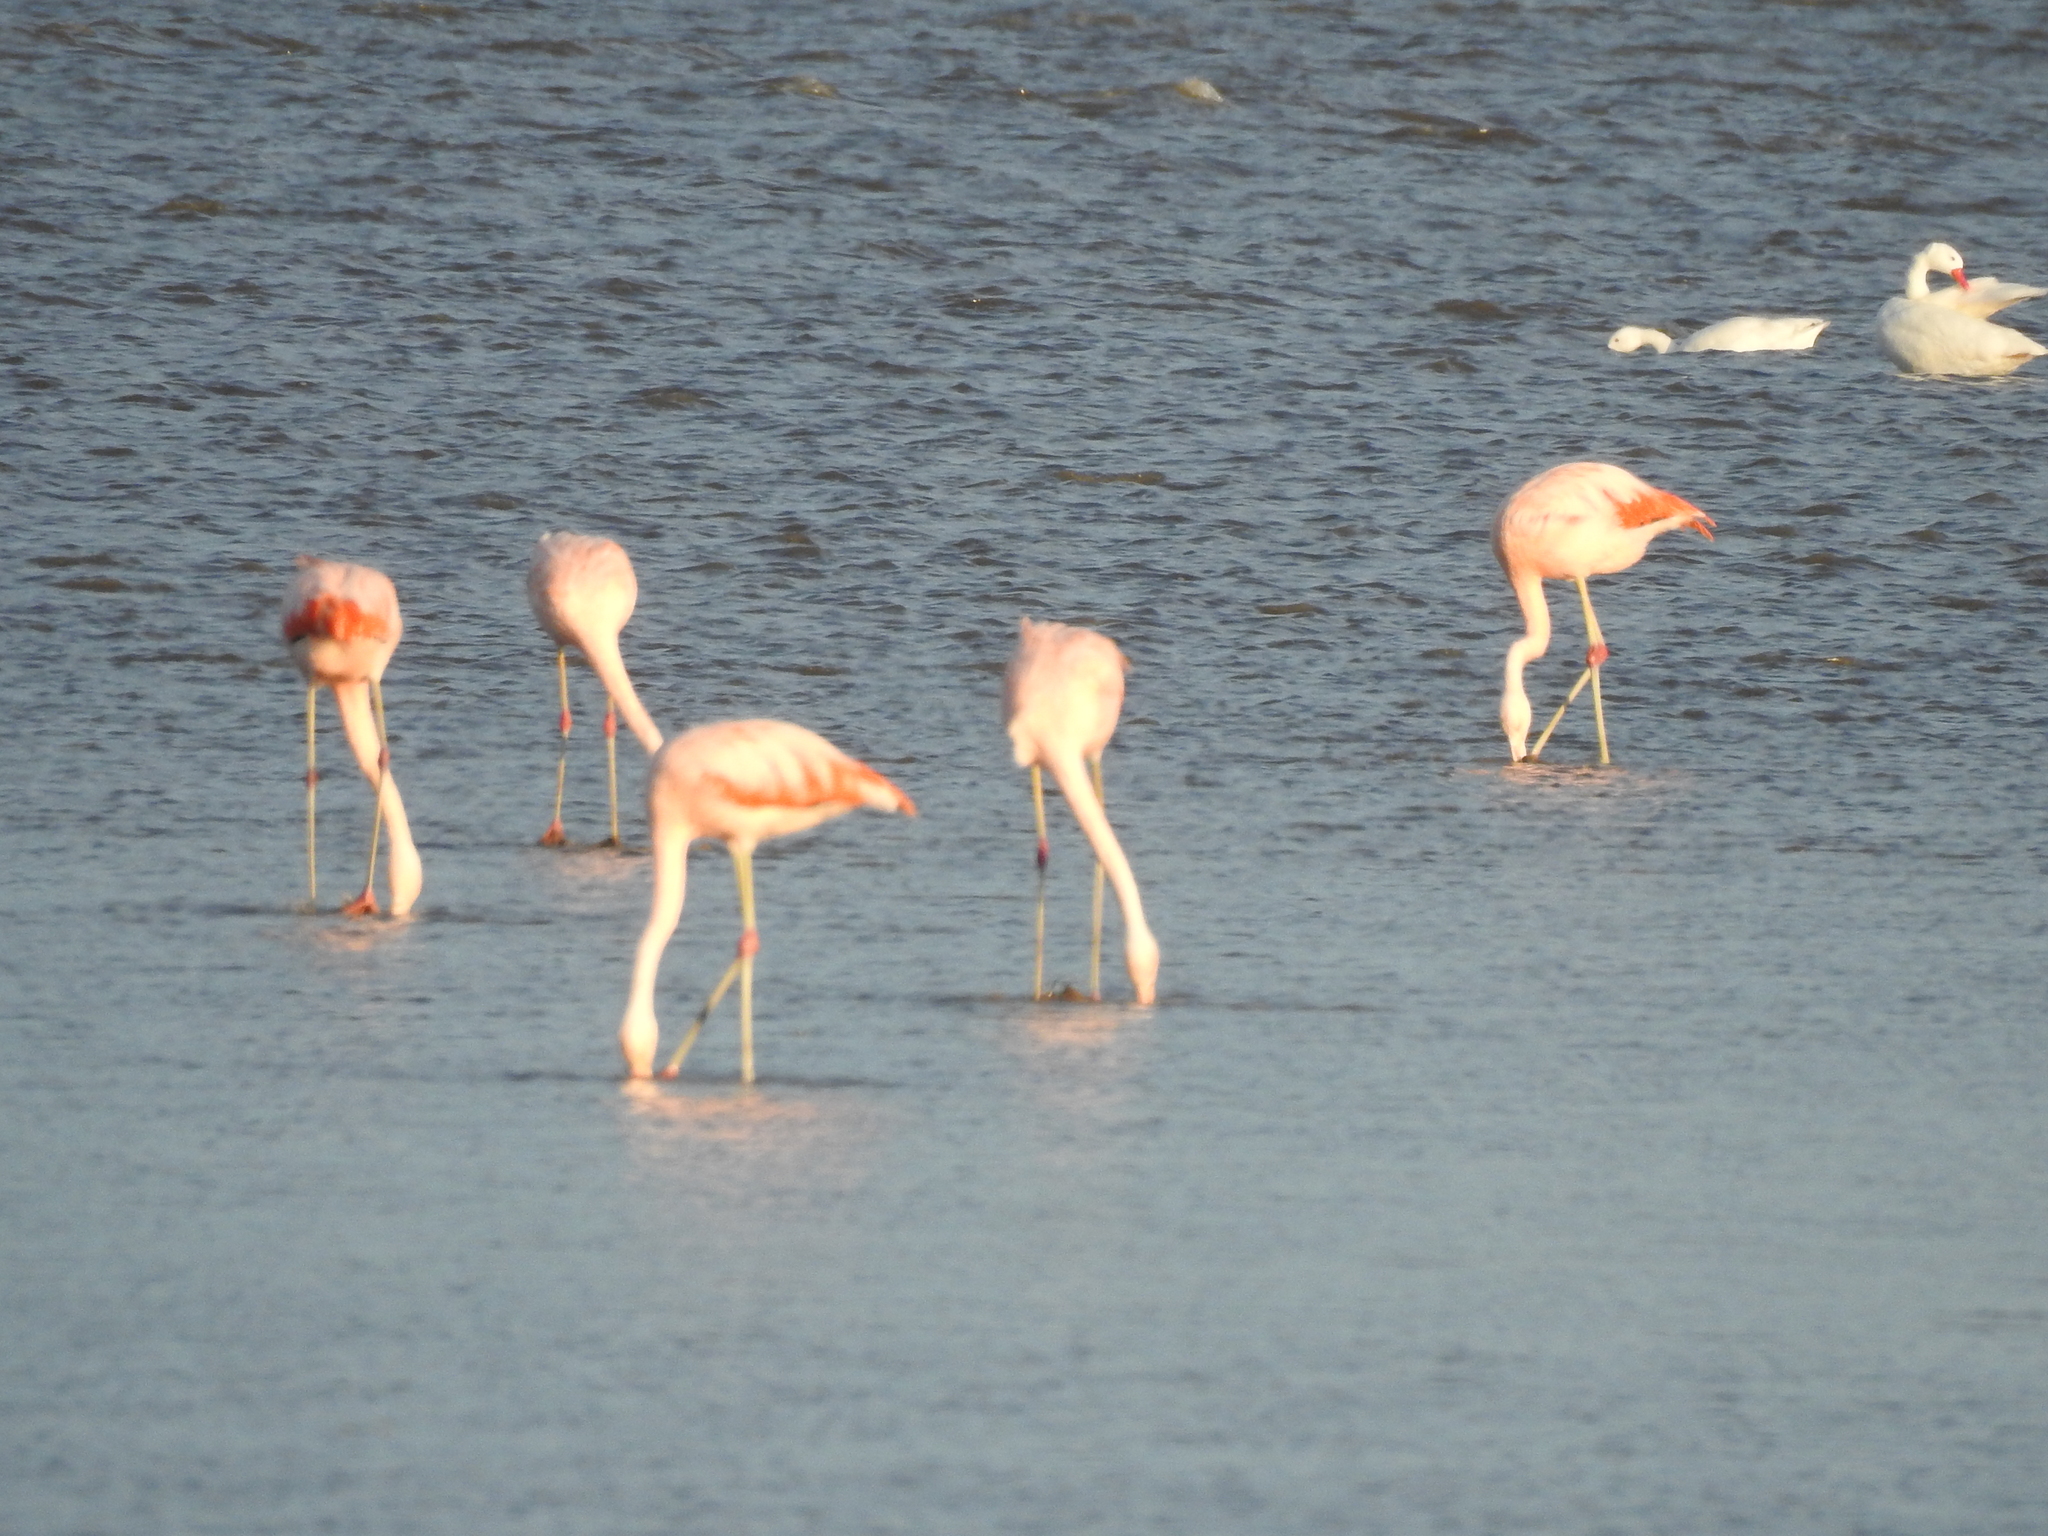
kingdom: Animalia
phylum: Chordata
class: Aves
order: Phoenicopteriformes
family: Phoenicopteridae
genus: Phoenicopterus
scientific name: Phoenicopterus chilensis
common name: Chilean flamingo
